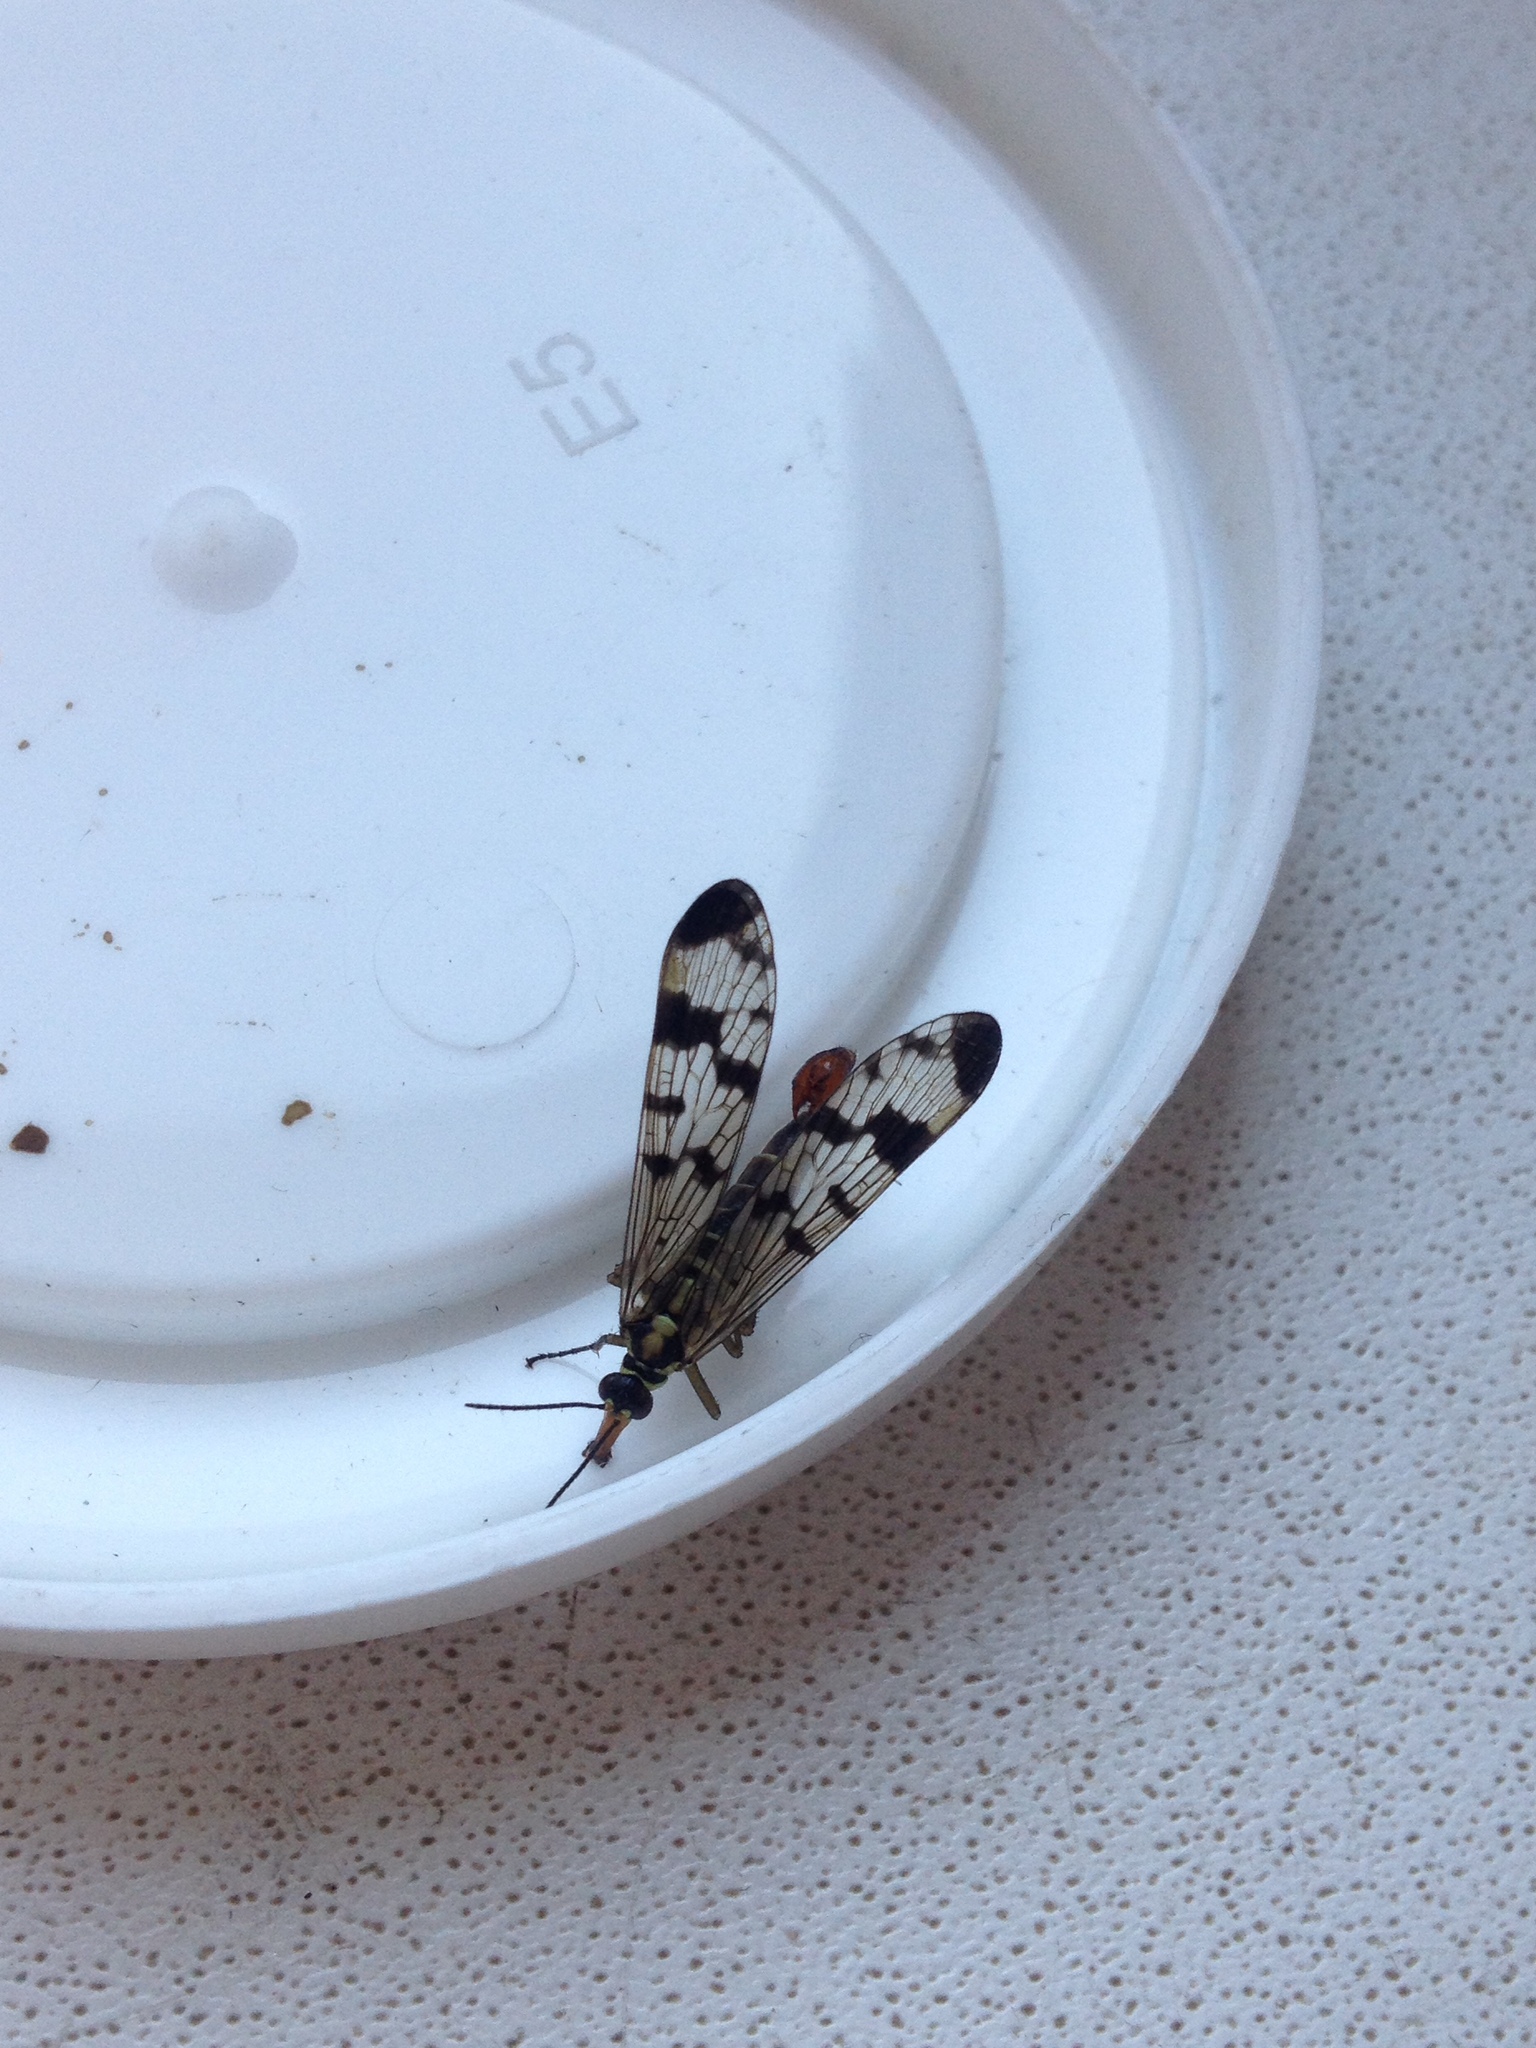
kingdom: Animalia
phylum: Arthropoda
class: Insecta
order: Mecoptera
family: Panorpidae
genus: Panorpa
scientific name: Panorpa communis
